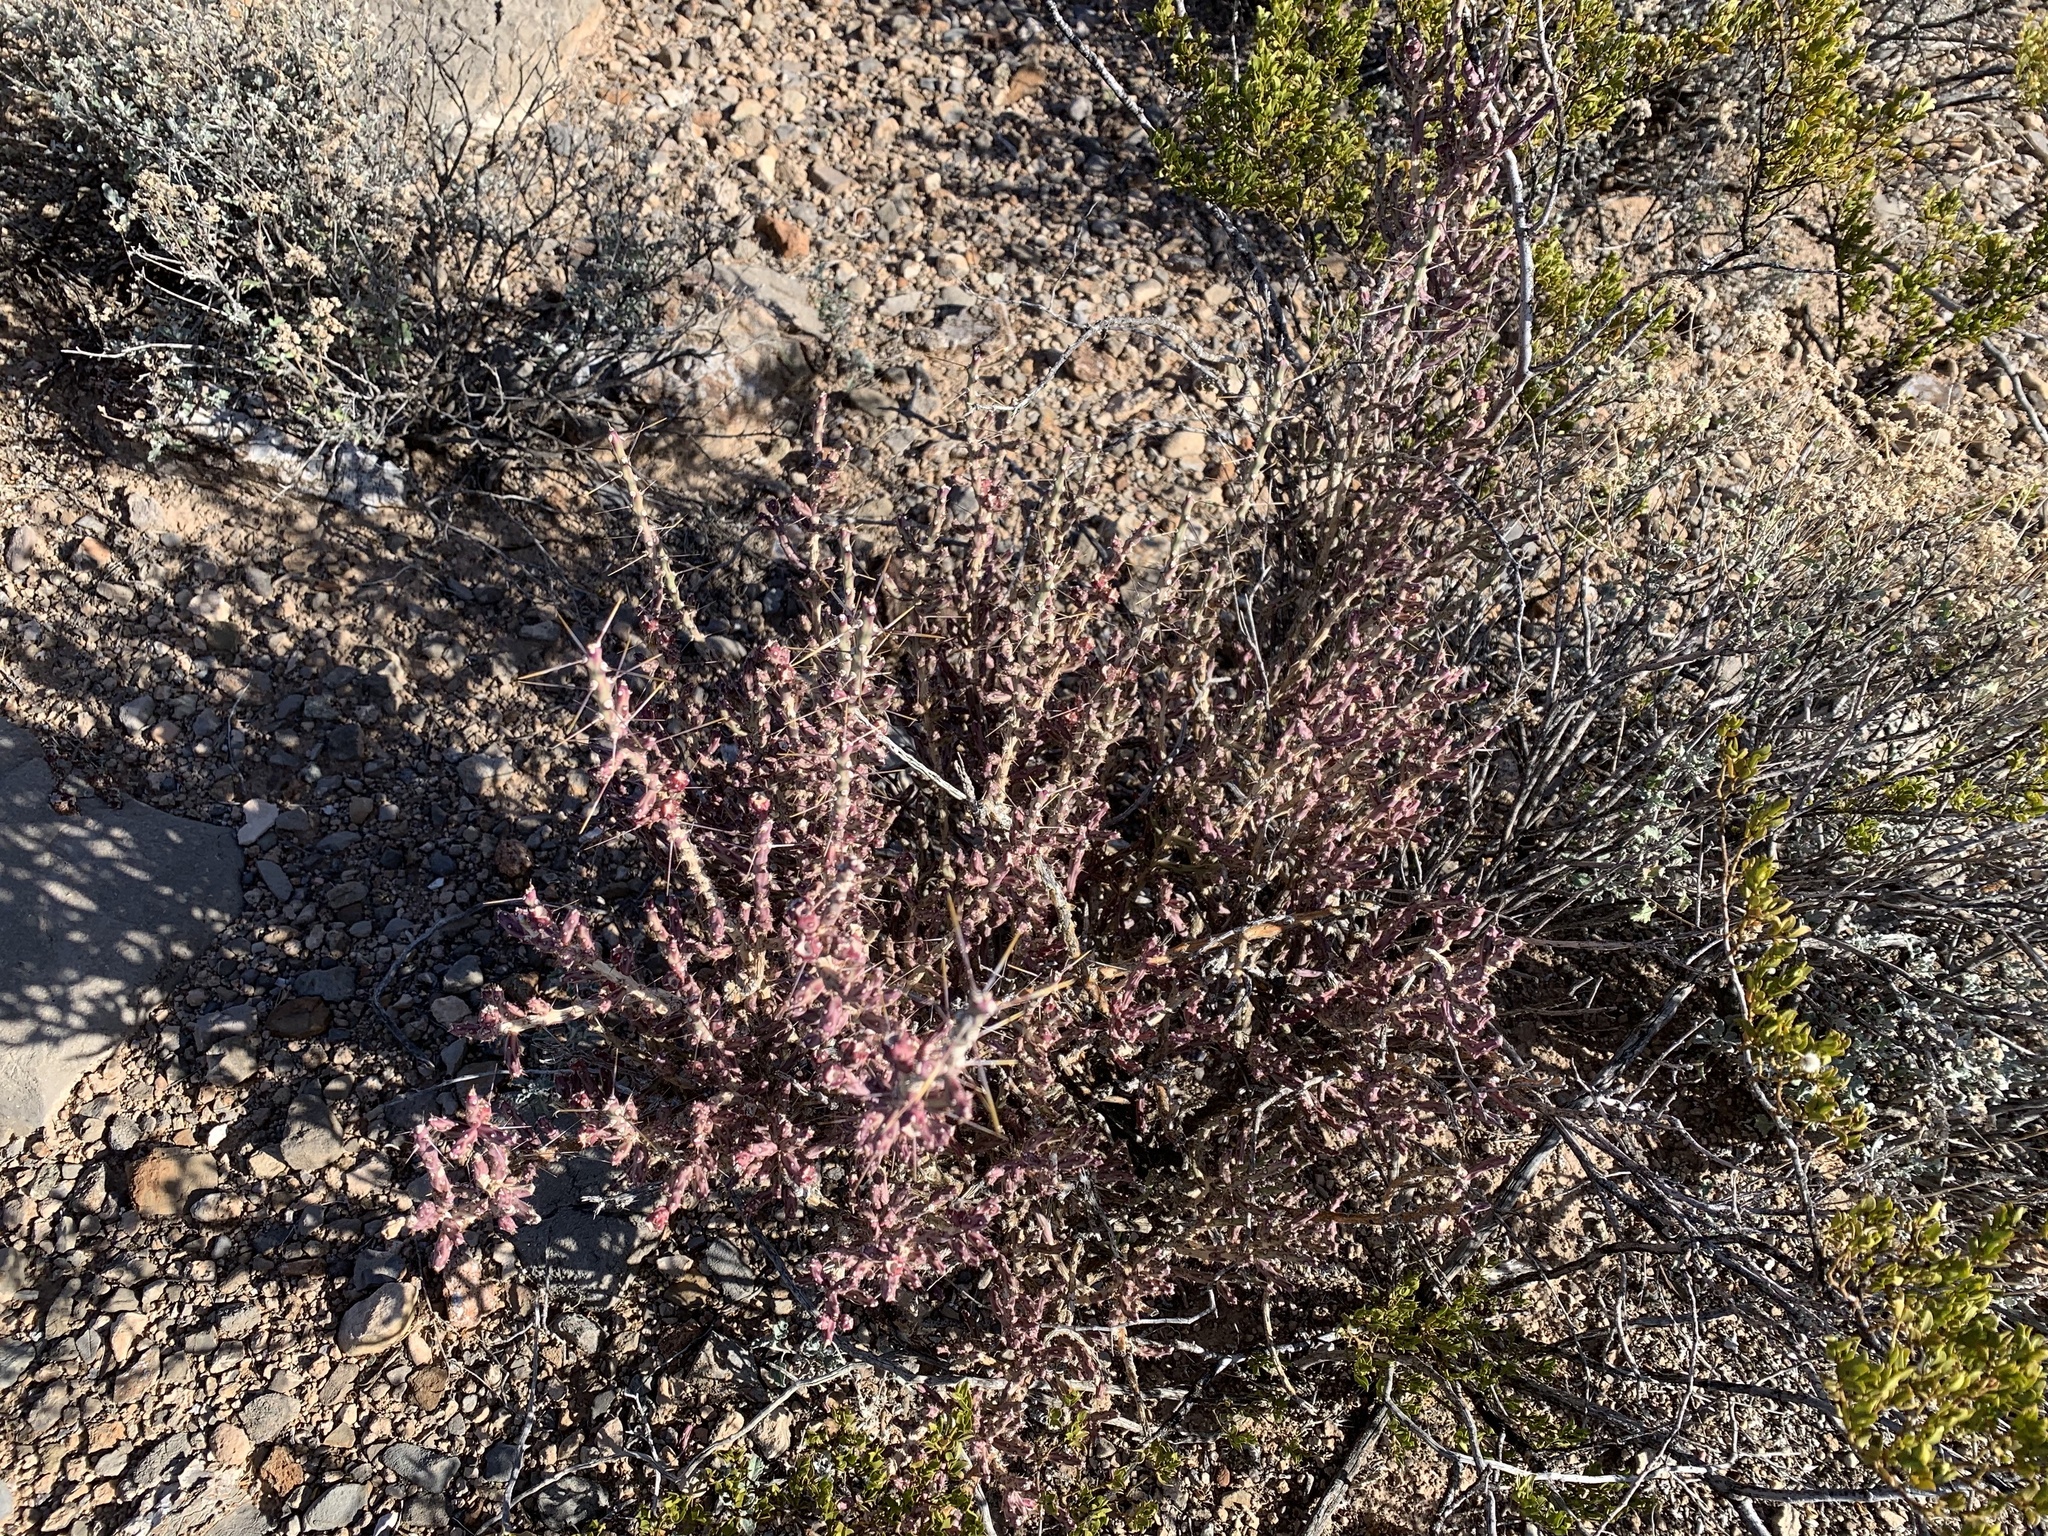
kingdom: Plantae
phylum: Tracheophyta
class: Magnoliopsida
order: Caryophyllales
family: Cactaceae
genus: Cylindropuntia
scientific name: Cylindropuntia leptocaulis
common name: Christmas cactus
